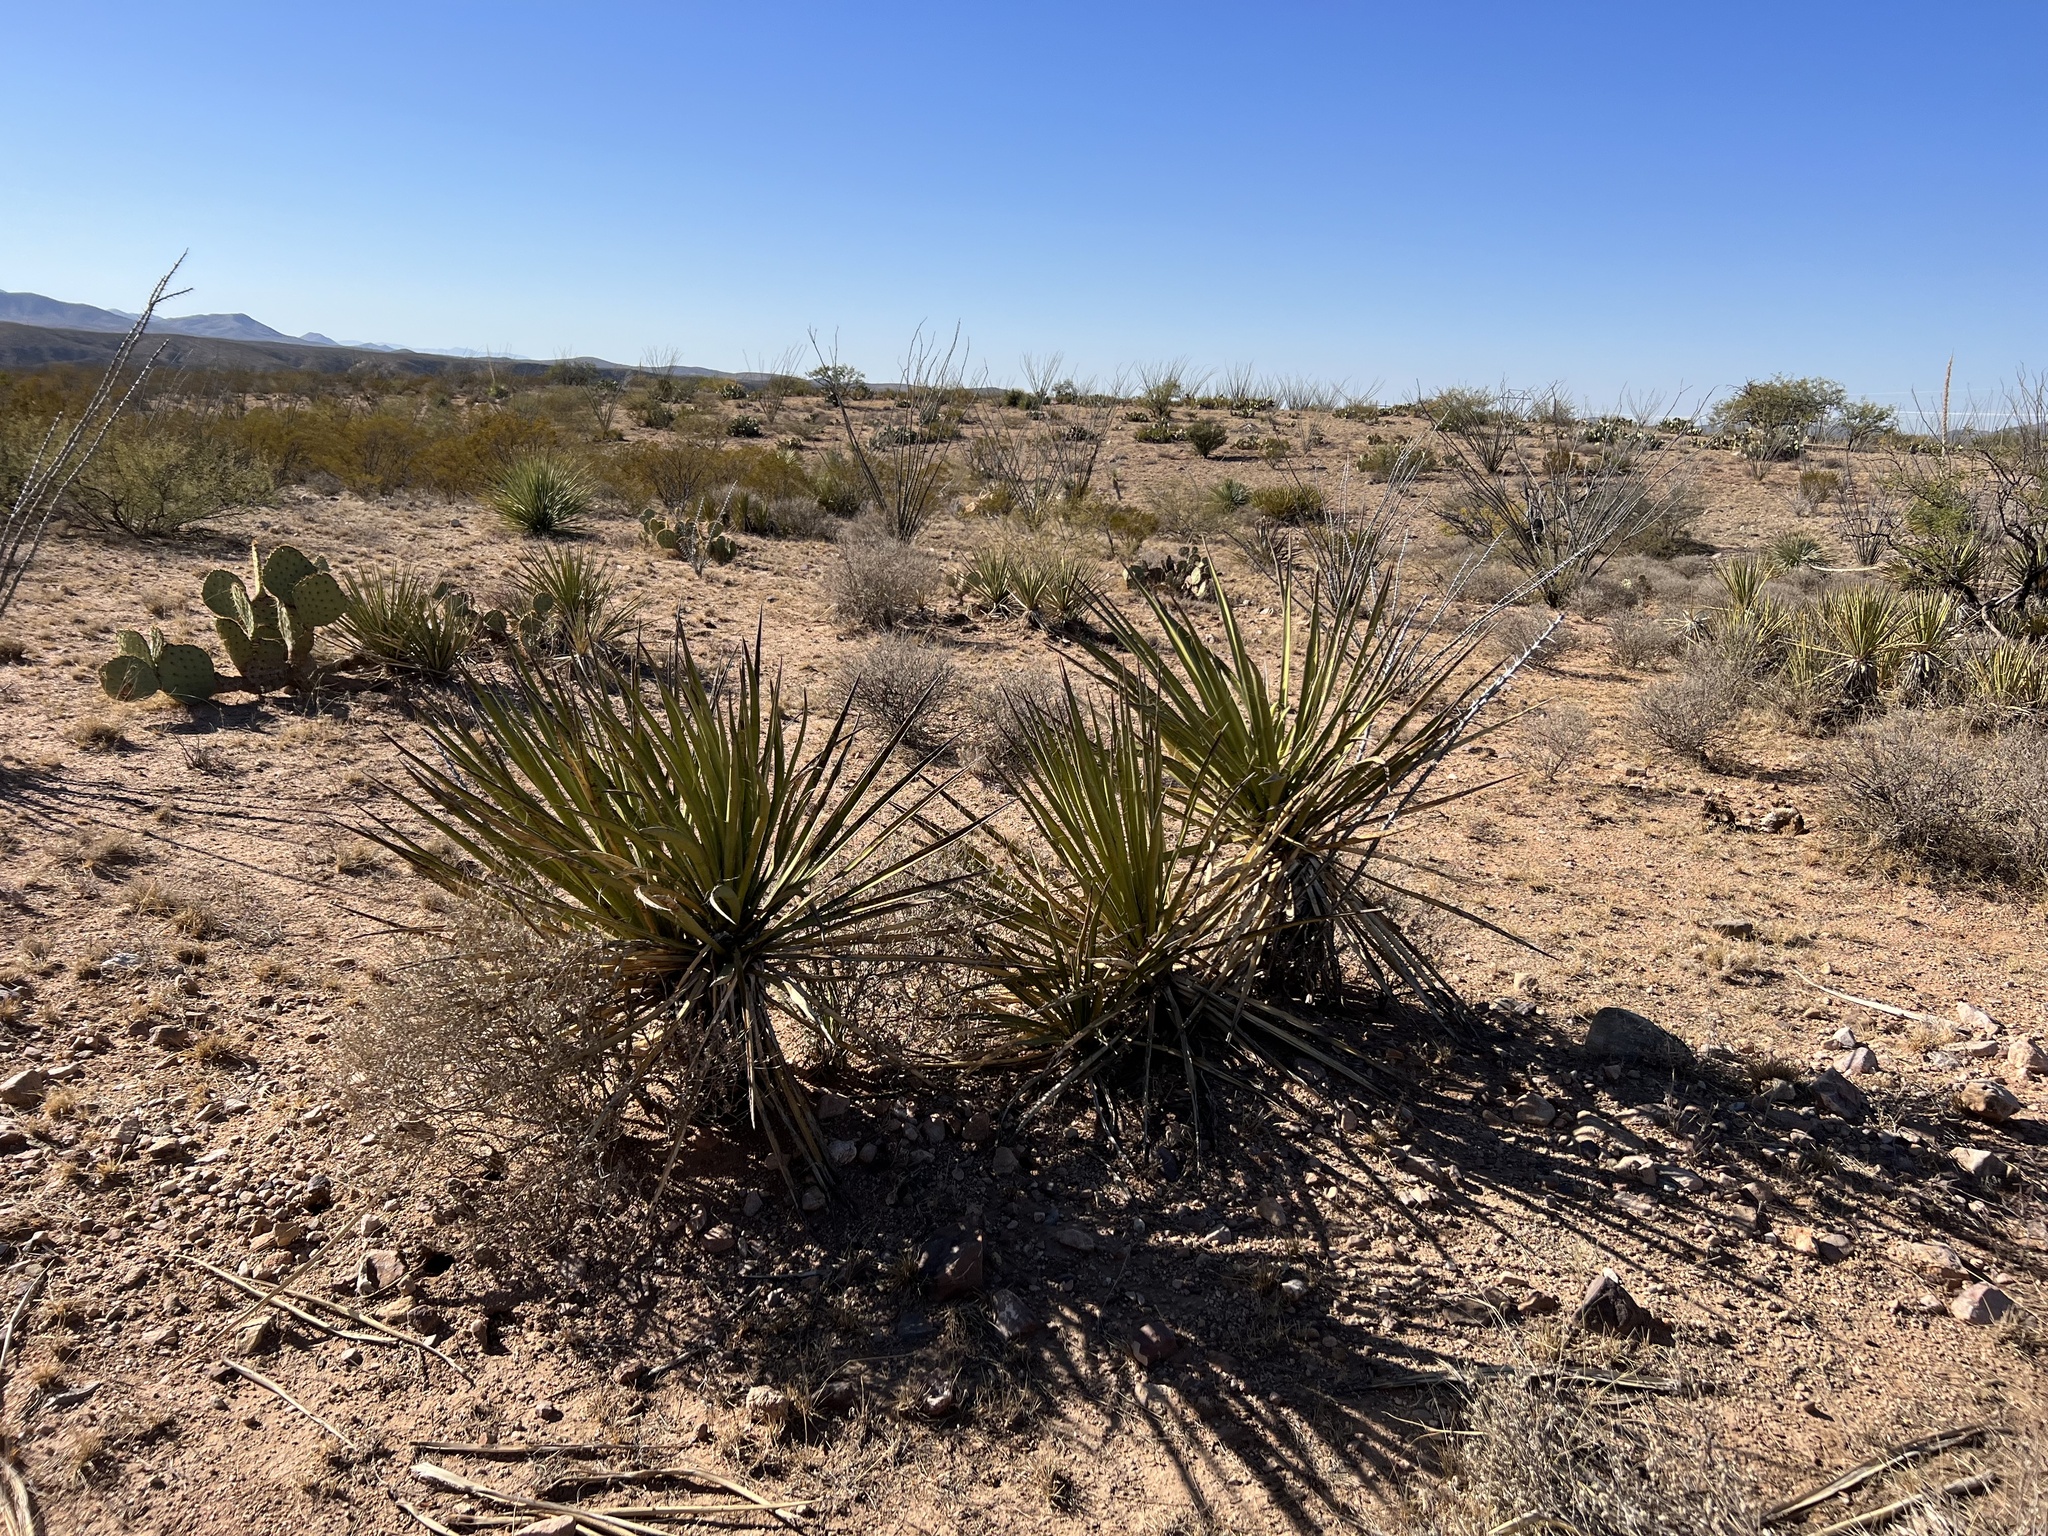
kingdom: Plantae
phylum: Tracheophyta
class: Liliopsida
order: Asparagales
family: Asparagaceae
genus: Yucca
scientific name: Yucca baccata
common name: Banana yucca
